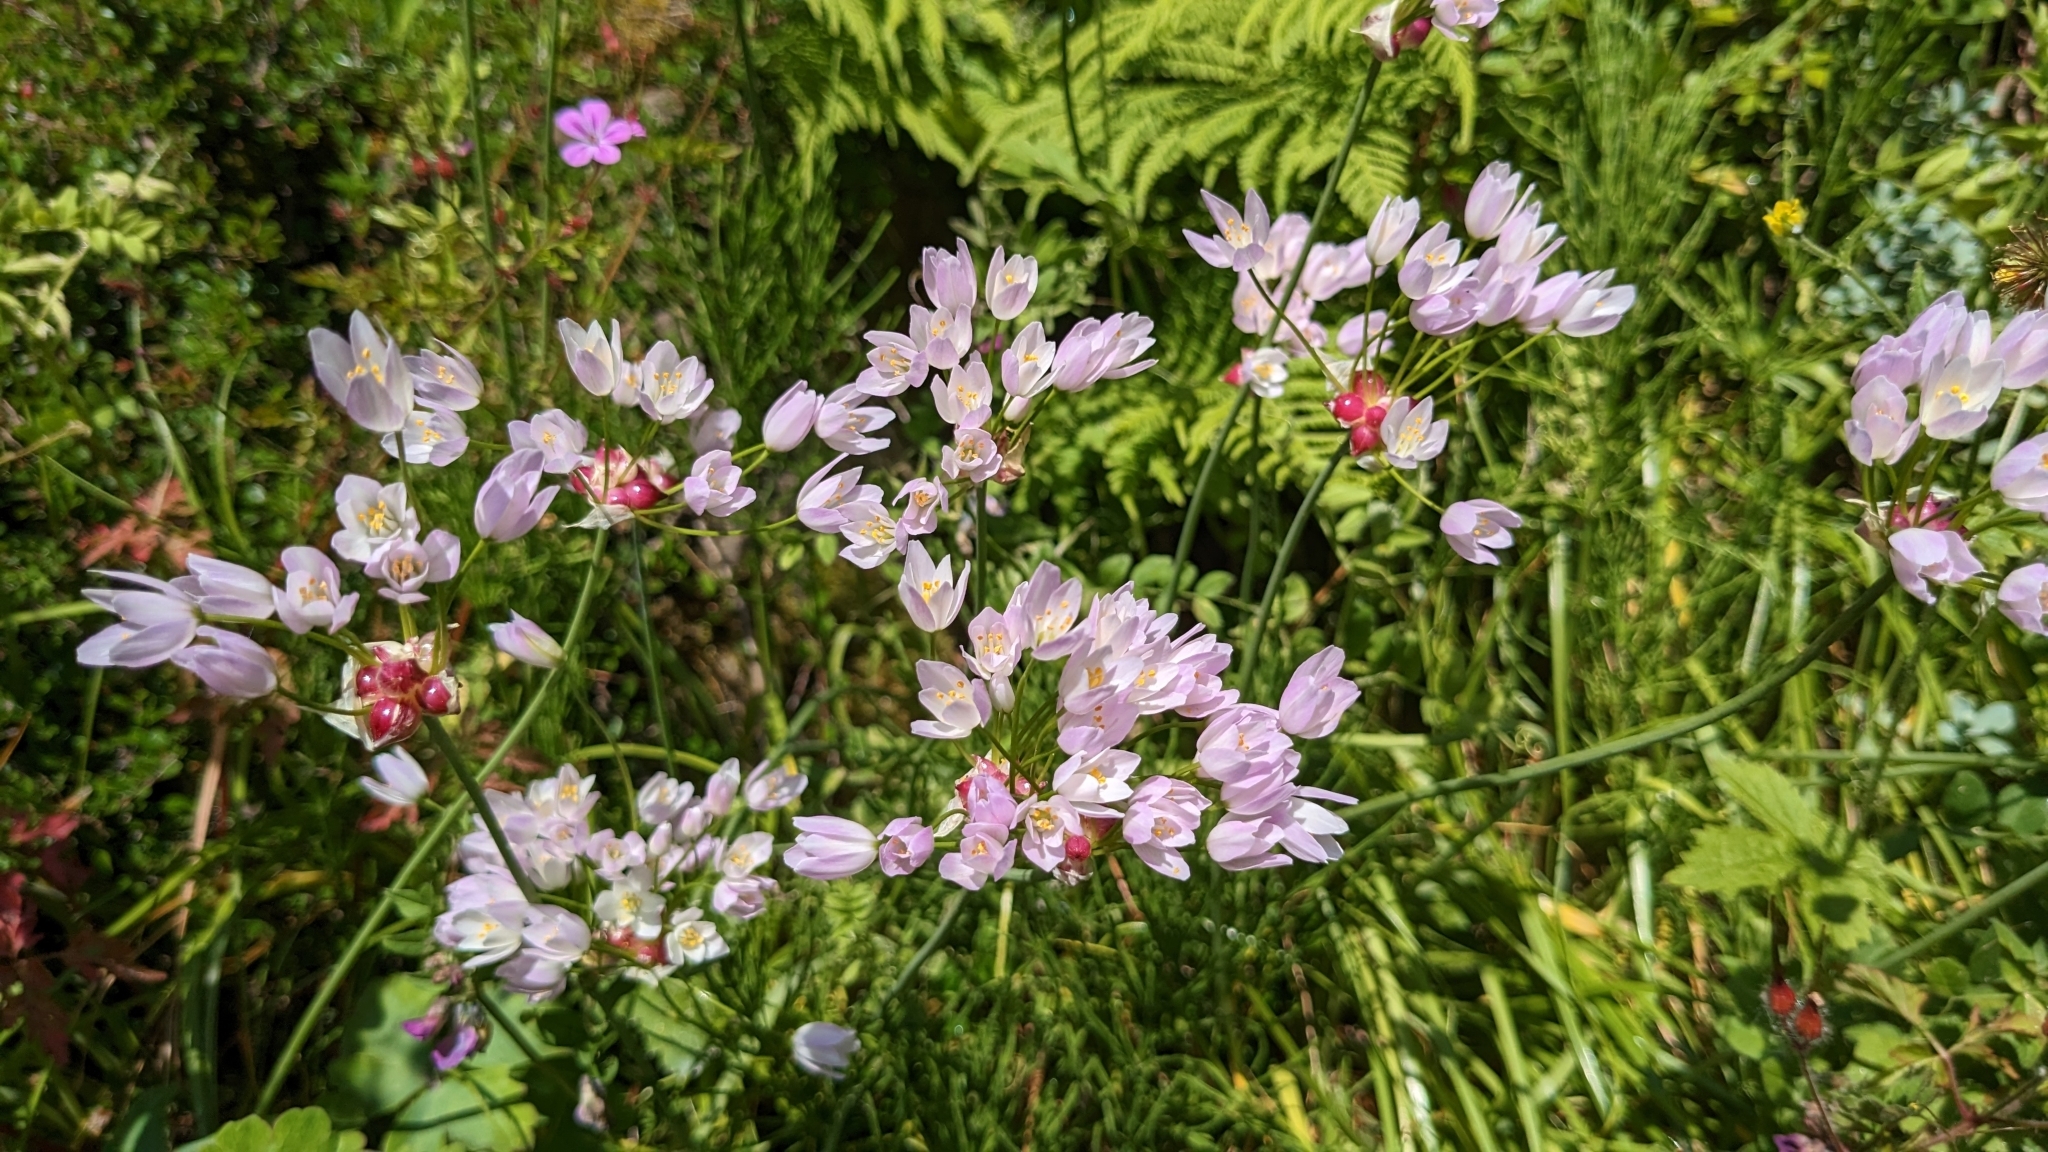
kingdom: Plantae
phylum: Tracheophyta
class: Liliopsida
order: Asparagales
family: Amaryllidaceae
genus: Allium
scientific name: Allium roseum
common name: Rosy garlic
